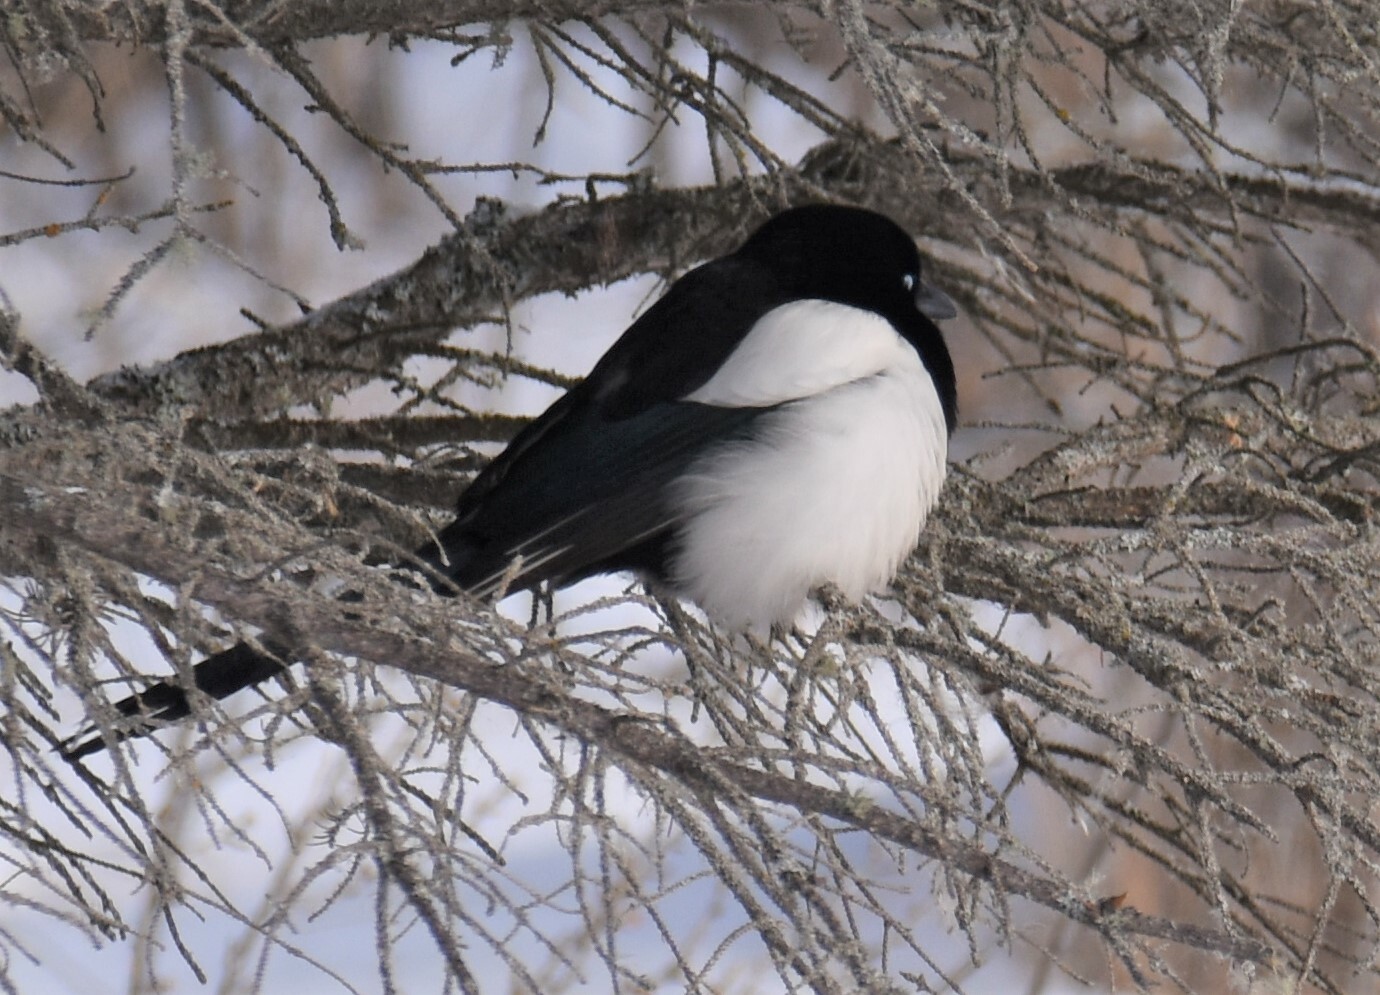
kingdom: Animalia
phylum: Chordata
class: Aves
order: Passeriformes
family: Corvidae
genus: Pica
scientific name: Pica hudsonia
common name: Black-billed magpie
